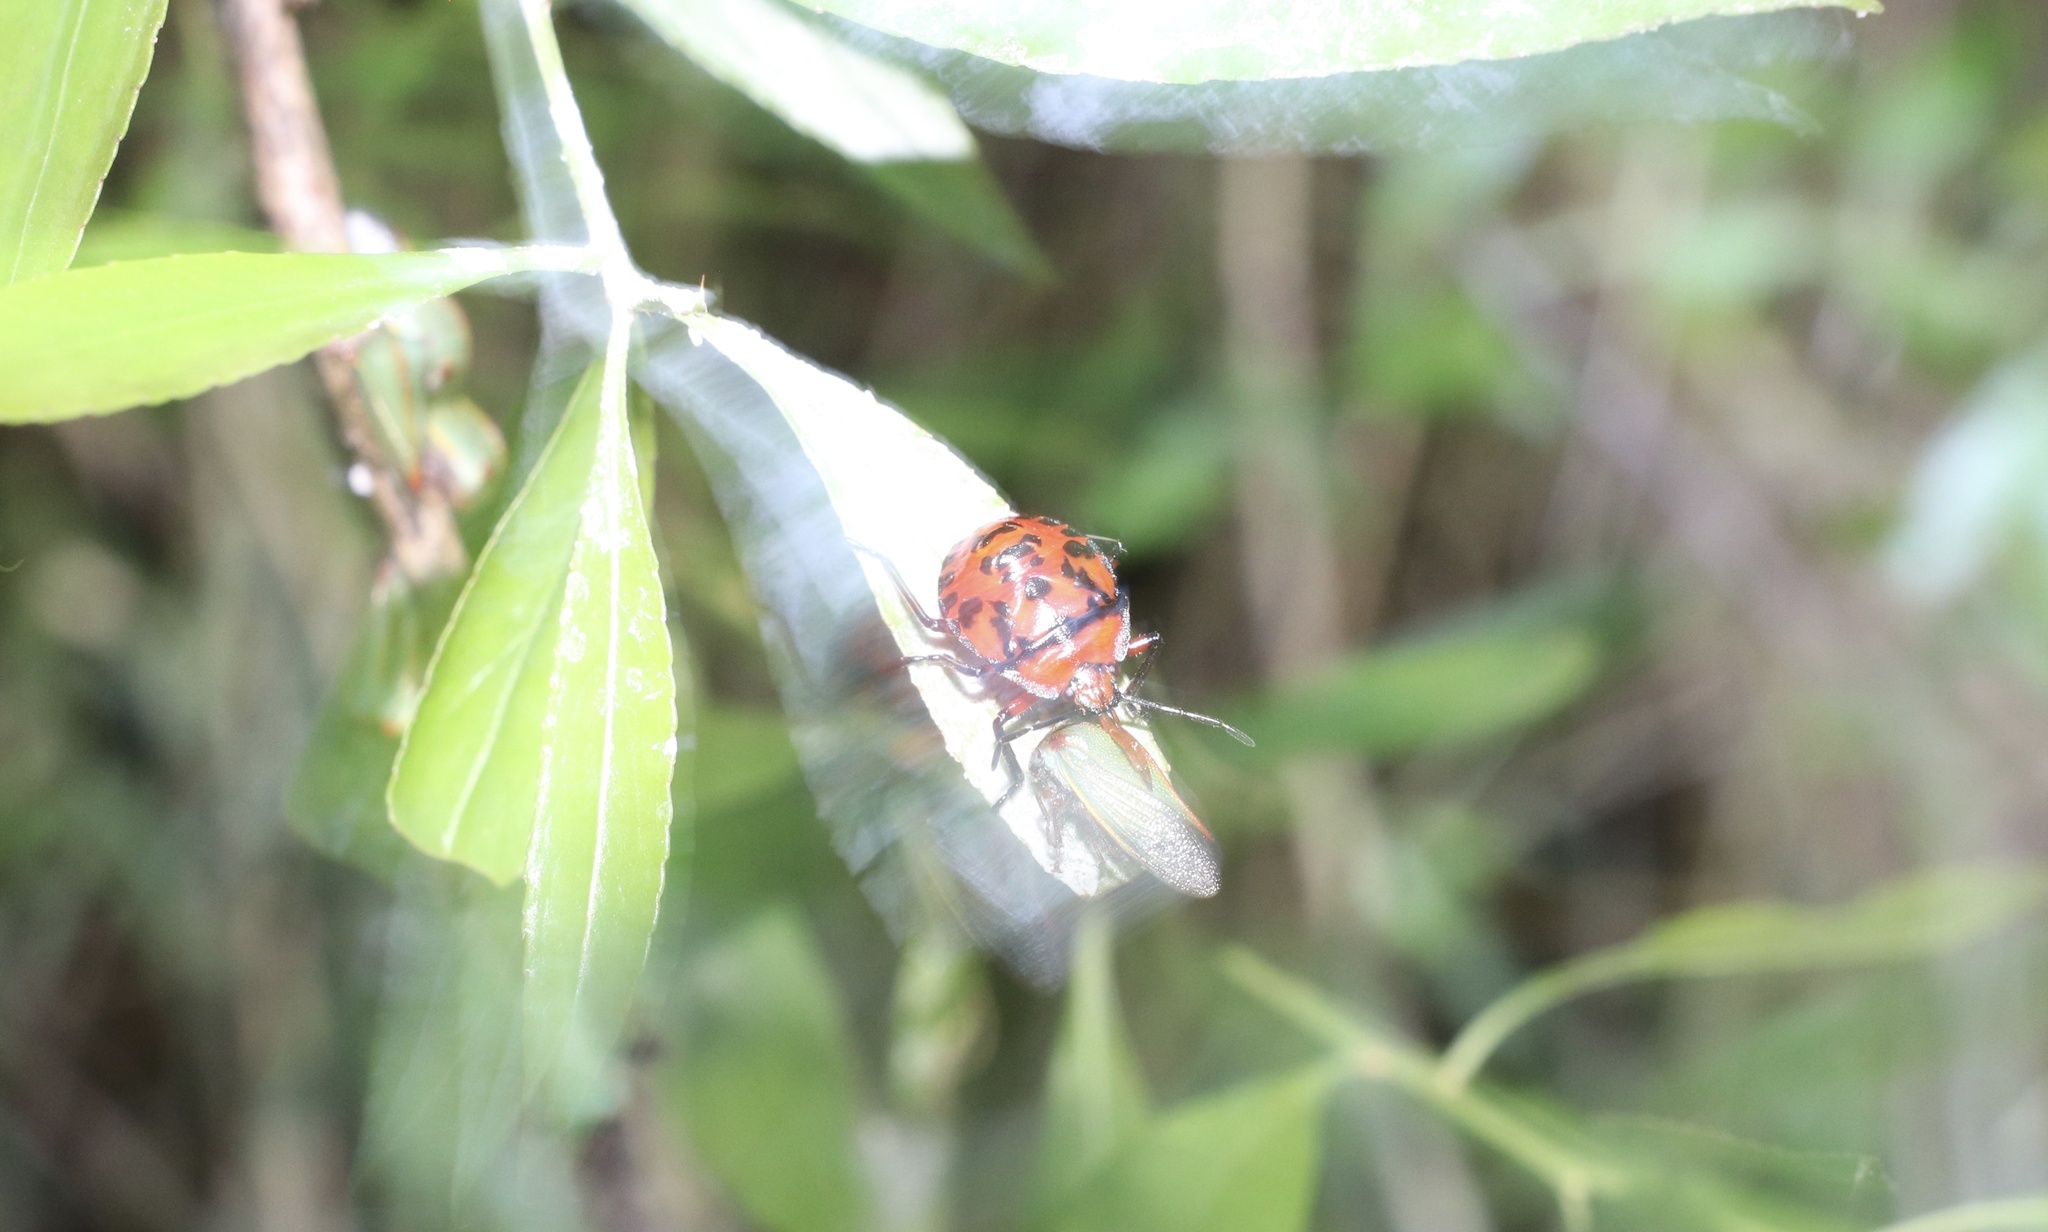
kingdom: Animalia
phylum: Arthropoda
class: Insecta
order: Hemiptera
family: Pentatomidae
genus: Brontocoris
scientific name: Brontocoris
